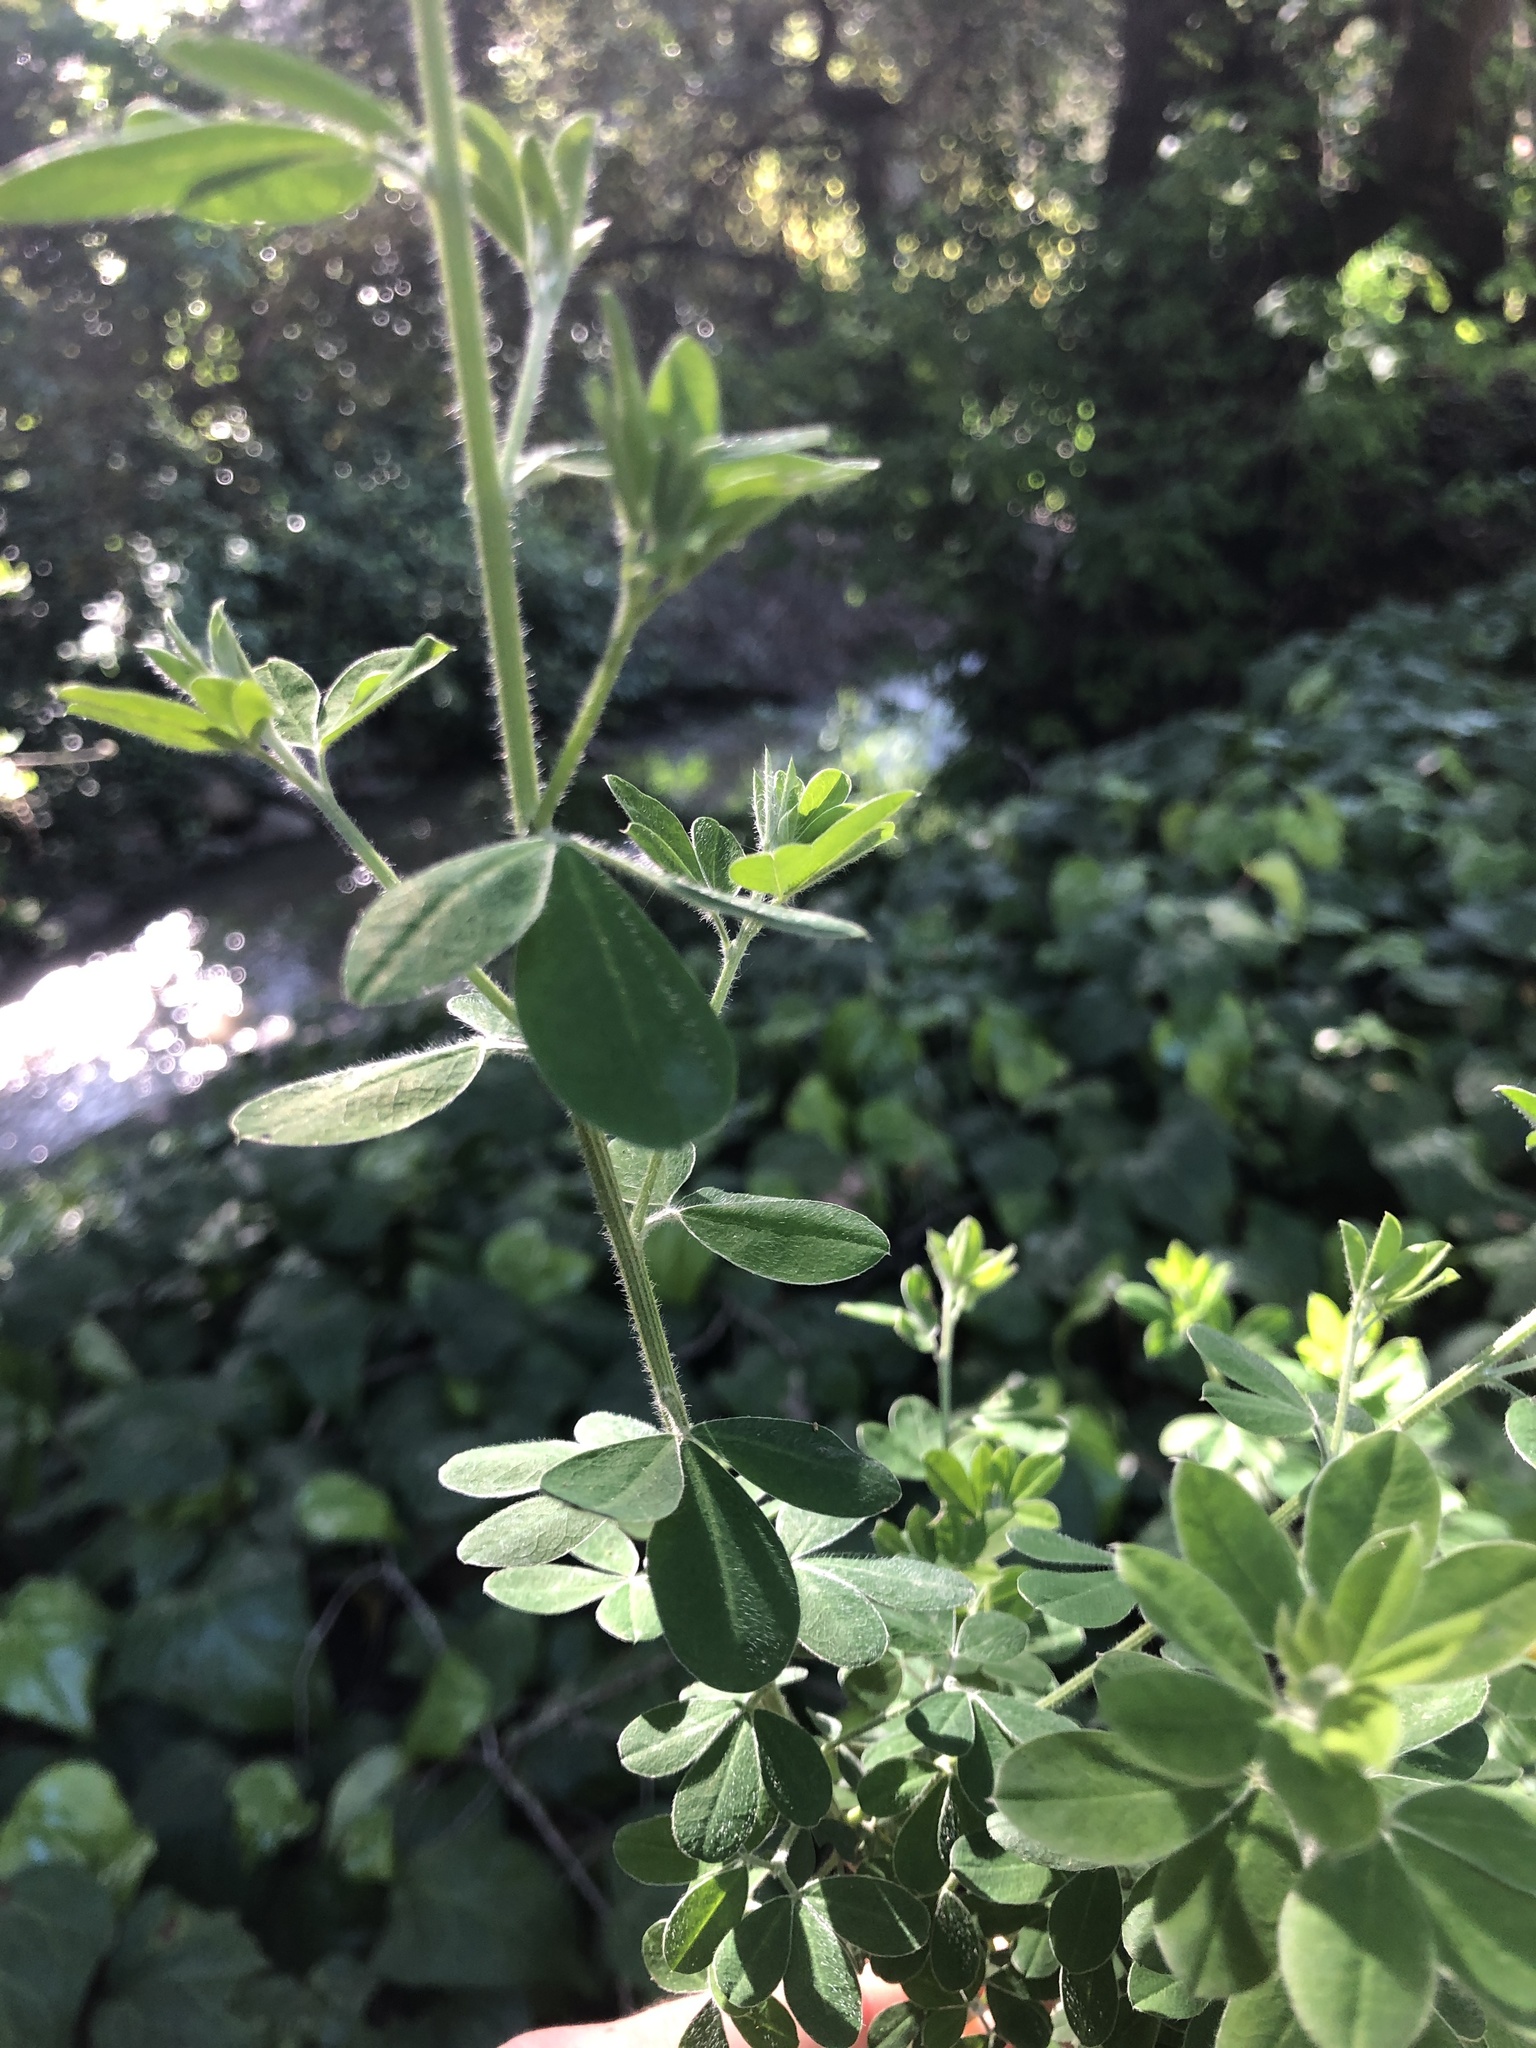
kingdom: Plantae
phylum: Tracheophyta
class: Magnoliopsida
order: Fabales
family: Fabaceae
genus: Genista
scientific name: Genista monspessulana
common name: Montpellier broom
